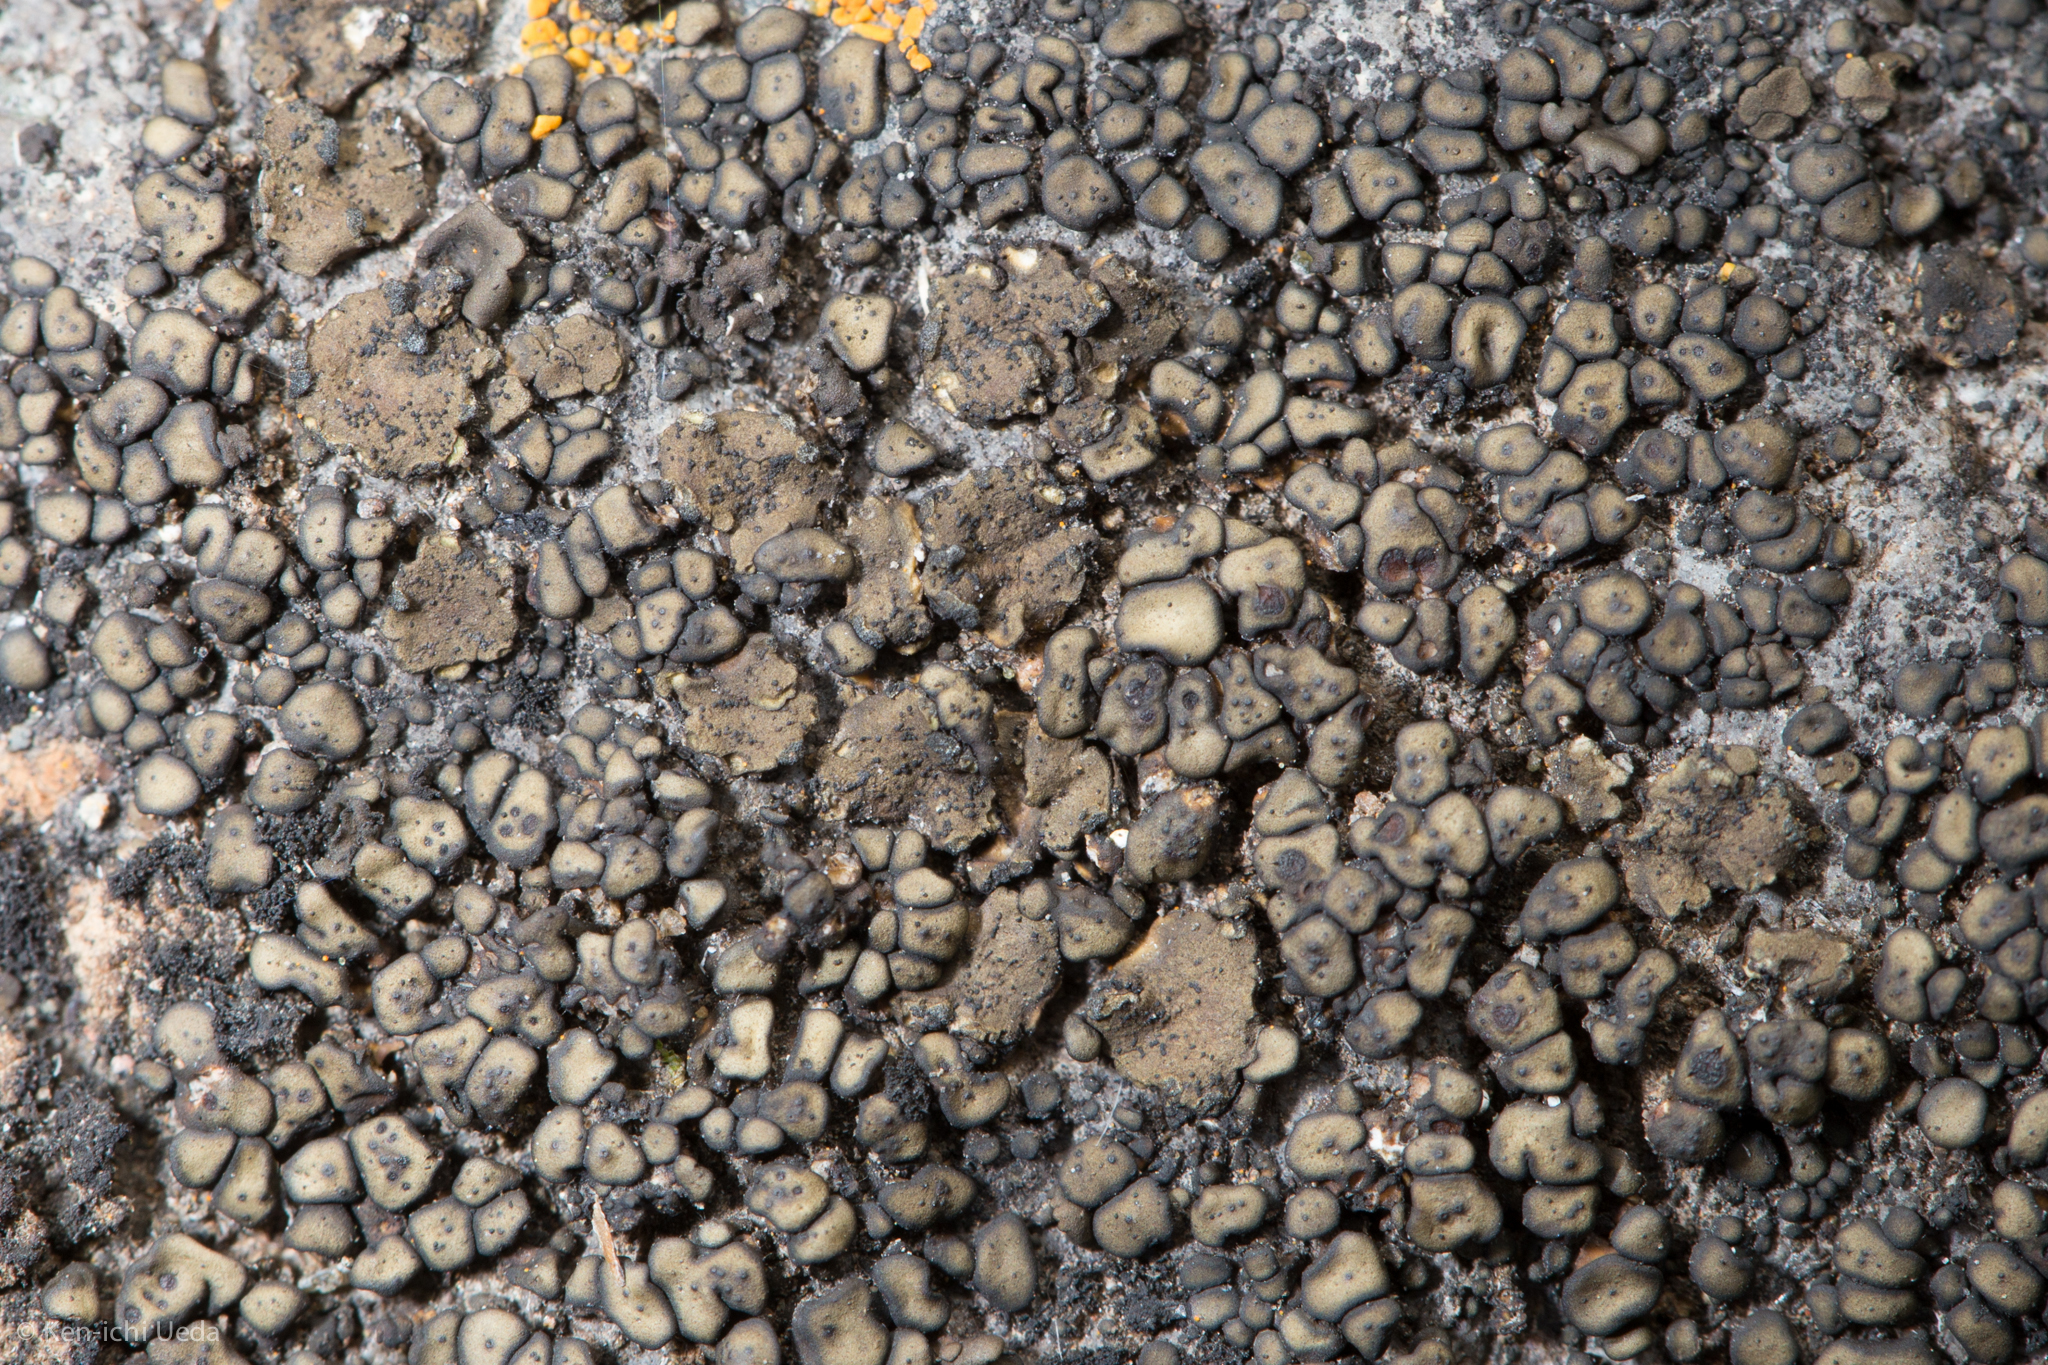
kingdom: Fungi
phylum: Ascomycota
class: Lichinomycetes
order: Lichinales
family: Peltulaceae
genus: Peltula
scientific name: Peltula zahlbruckneri
